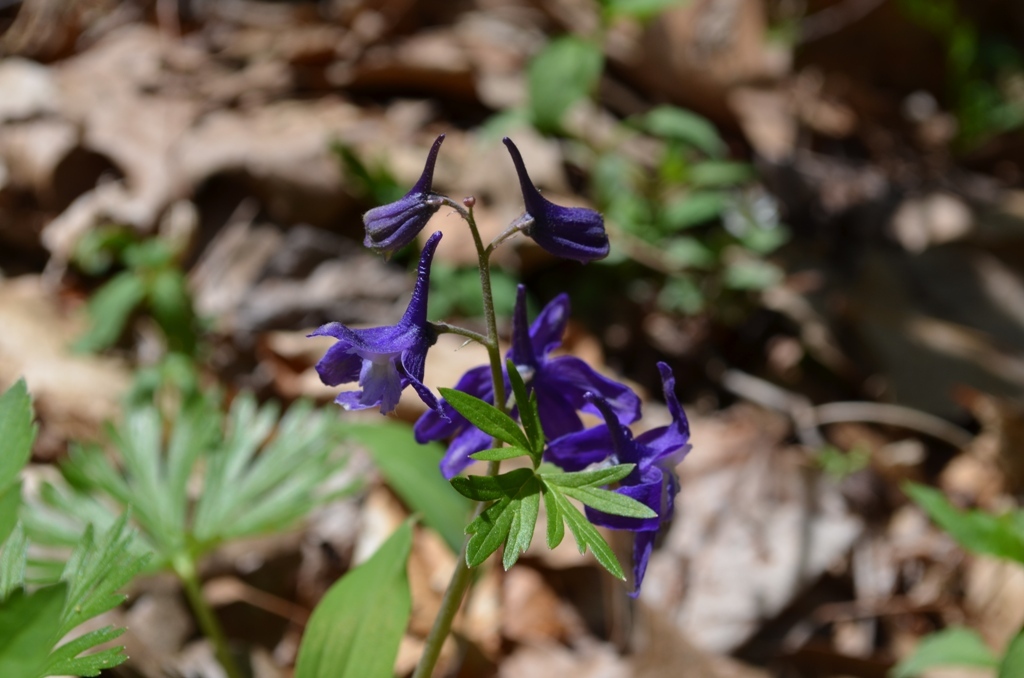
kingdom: Plantae
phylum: Tracheophyta
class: Magnoliopsida
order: Ranunculales
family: Ranunculaceae
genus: Delphinium
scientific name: Delphinium tricorne
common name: Dwarf larkspur
